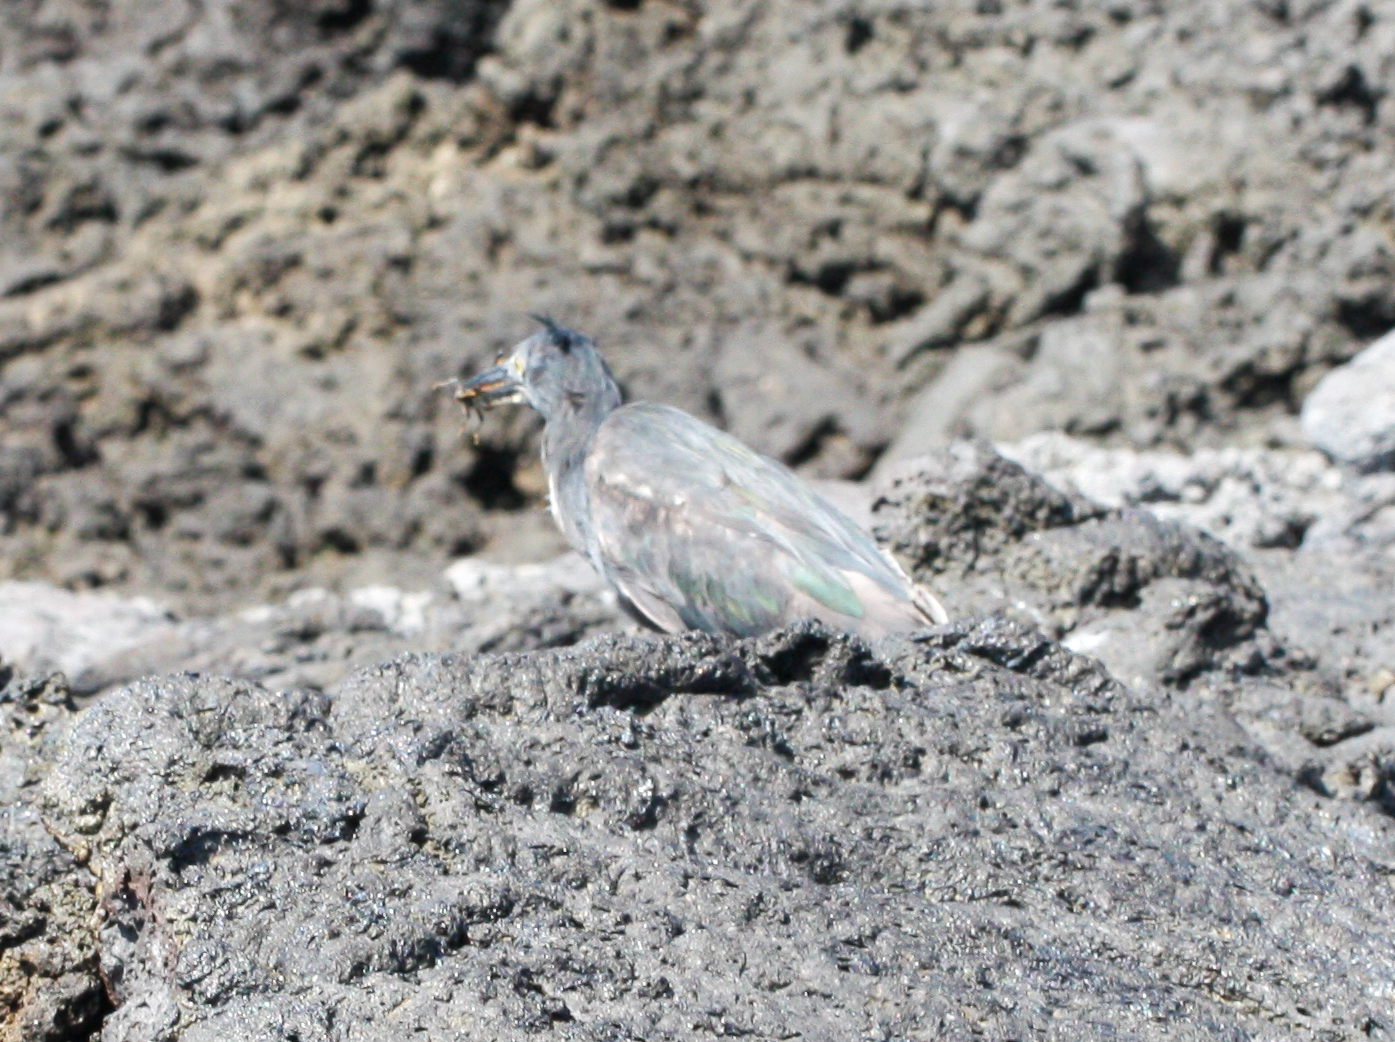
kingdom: Animalia
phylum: Chordata
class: Aves
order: Pelecaniformes
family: Ardeidae
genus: Butorides
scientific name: Butorides striata
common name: Striated heron
